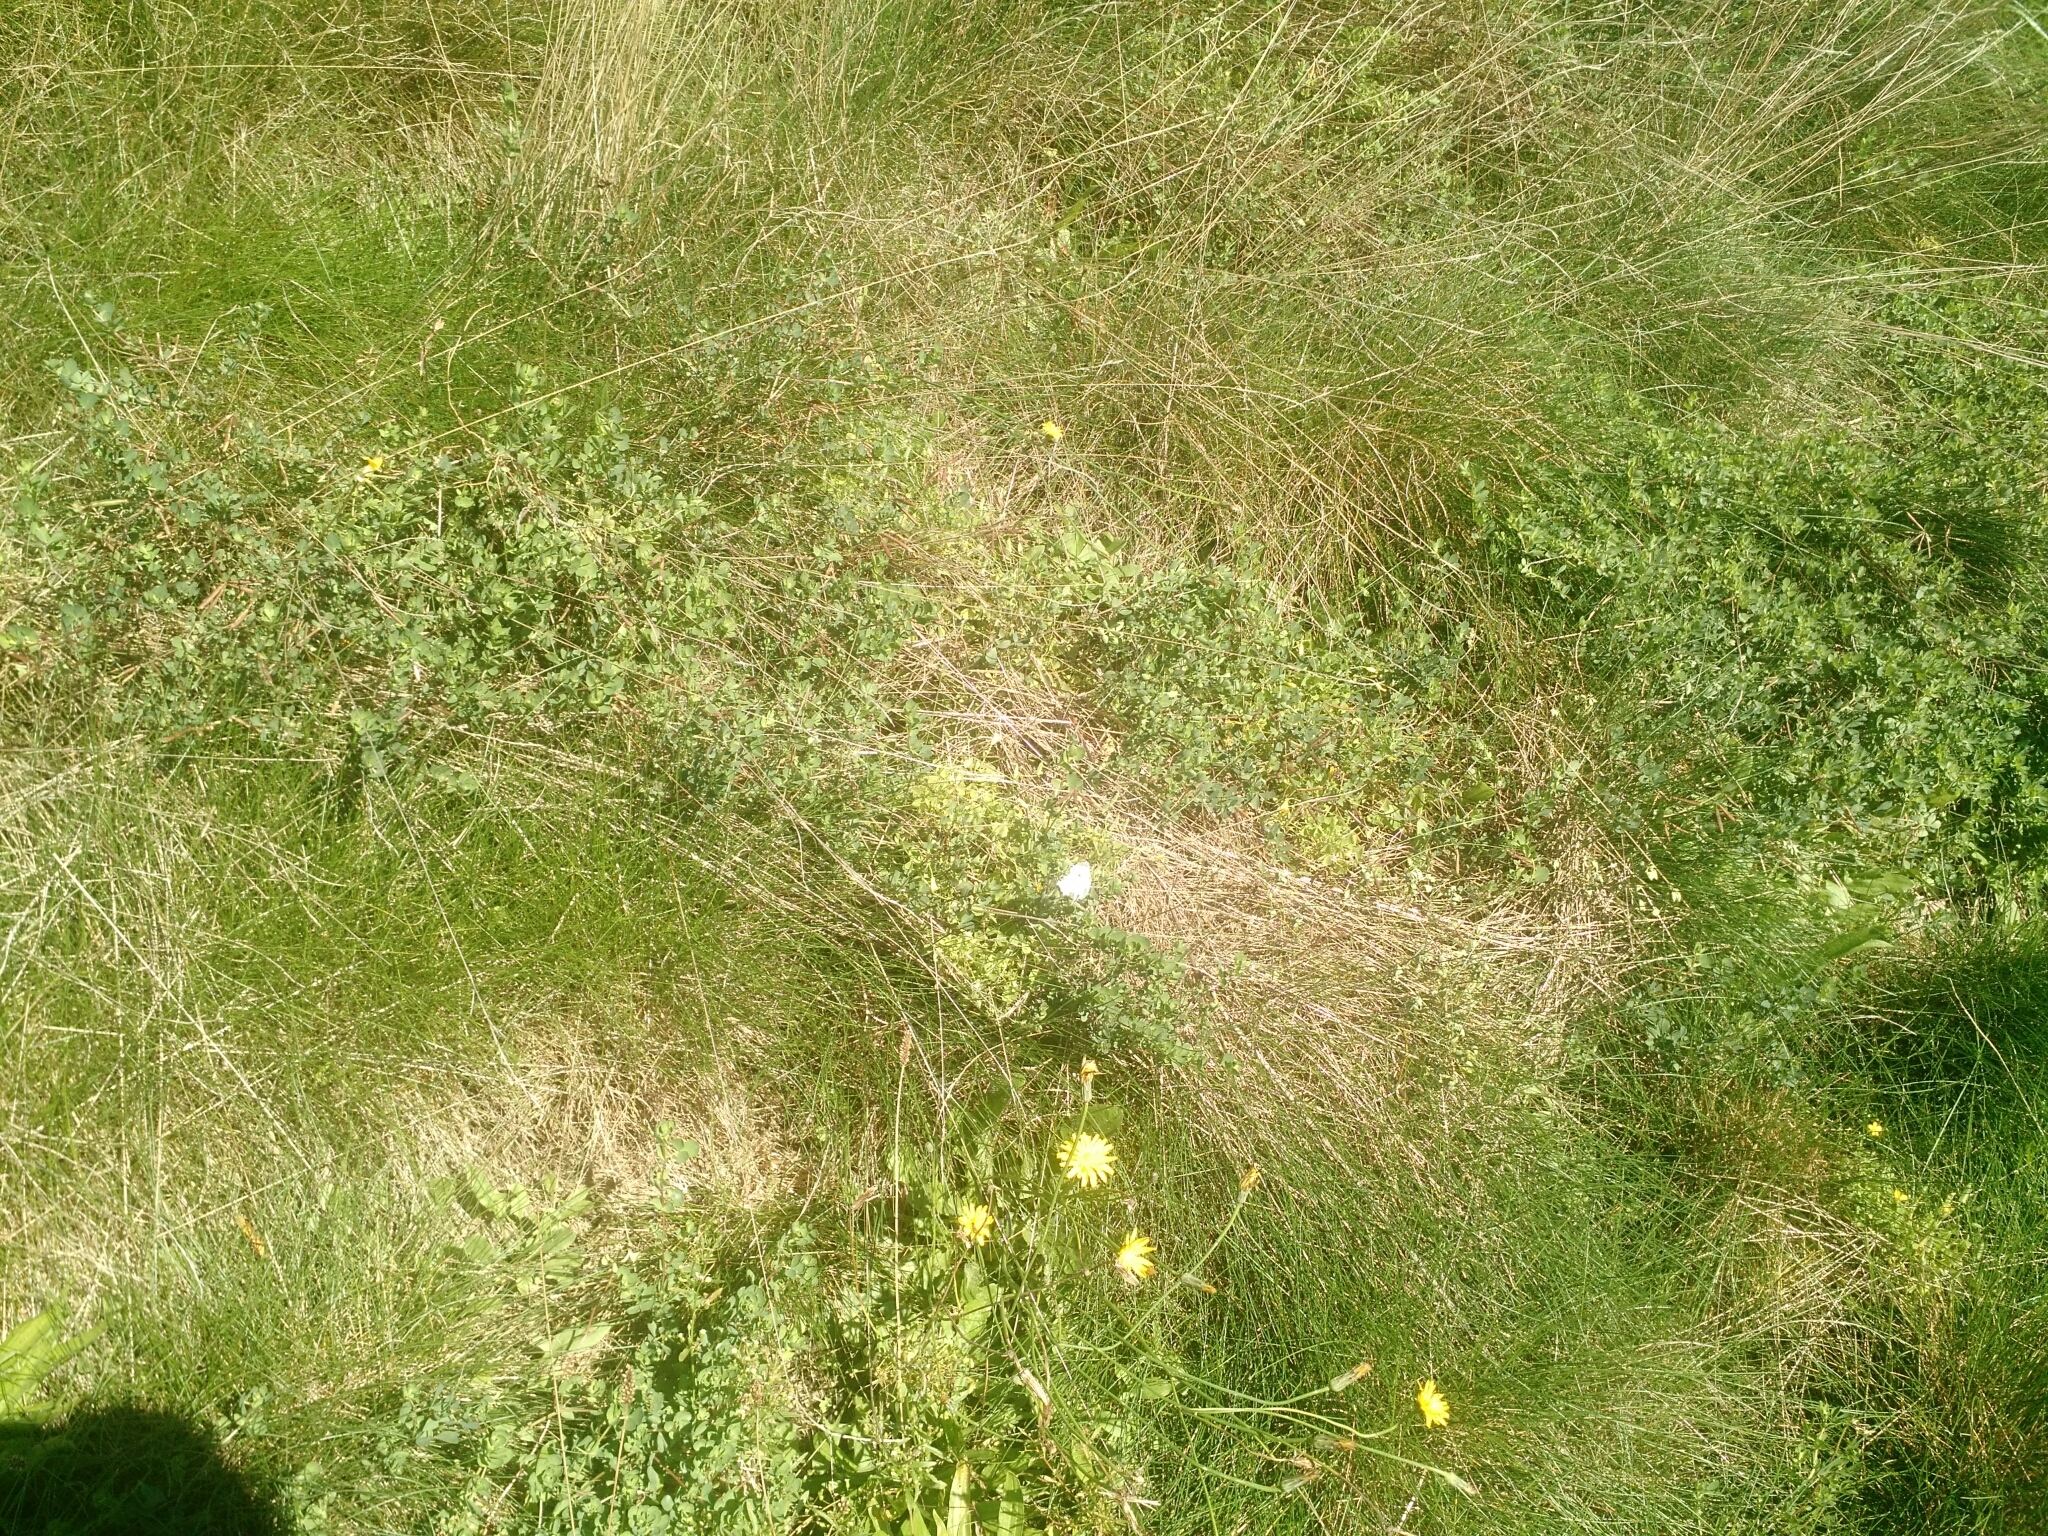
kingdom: Animalia
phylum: Arthropoda
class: Insecta
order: Lepidoptera
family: Pieridae
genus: Pieris
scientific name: Pieris rapae
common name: Small white
